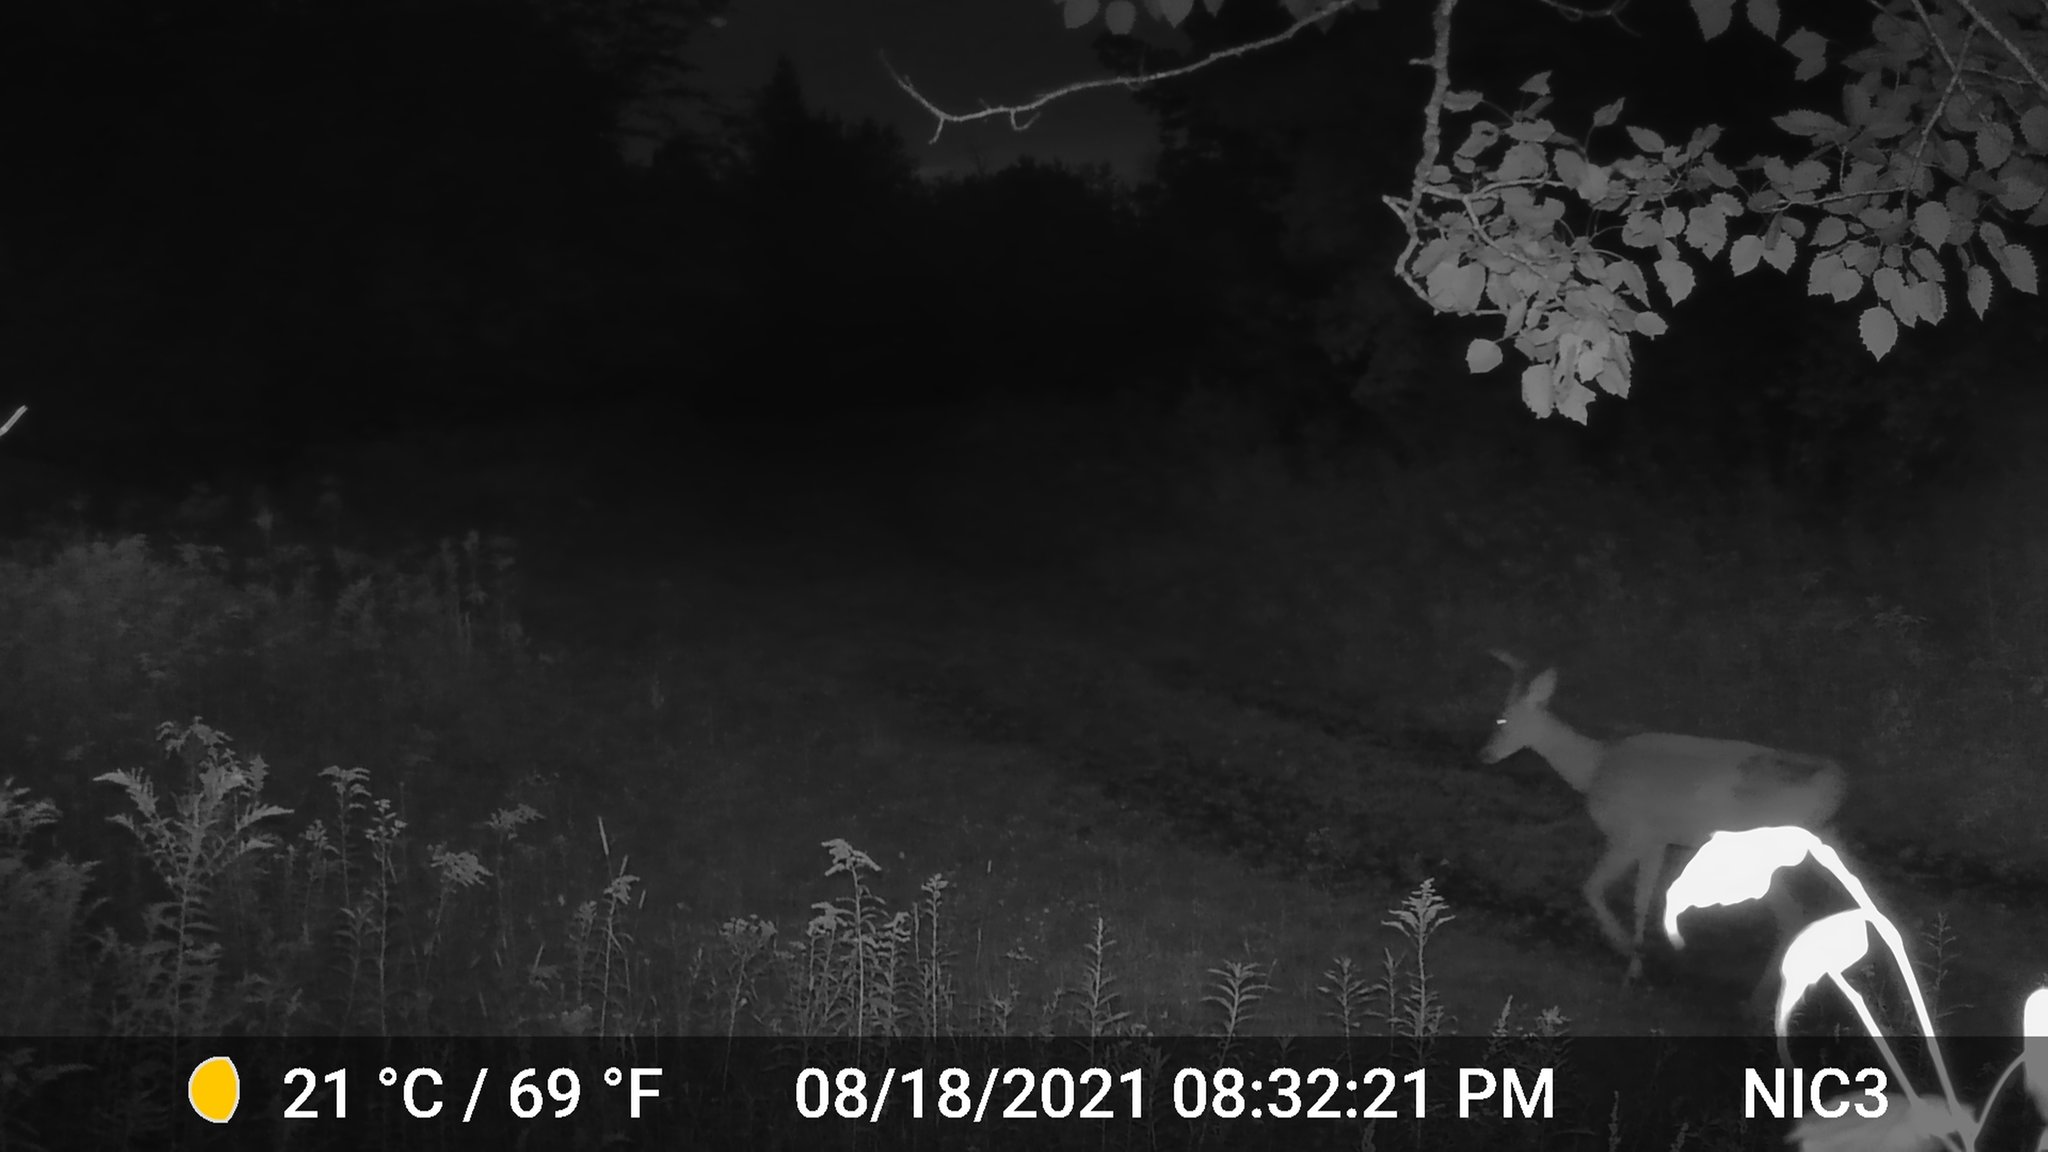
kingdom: Animalia
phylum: Chordata
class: Mammalia
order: Artiodactyla
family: Cervidae
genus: Odocoileus
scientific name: Odocoileus virginianus
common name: White-tailed deer
